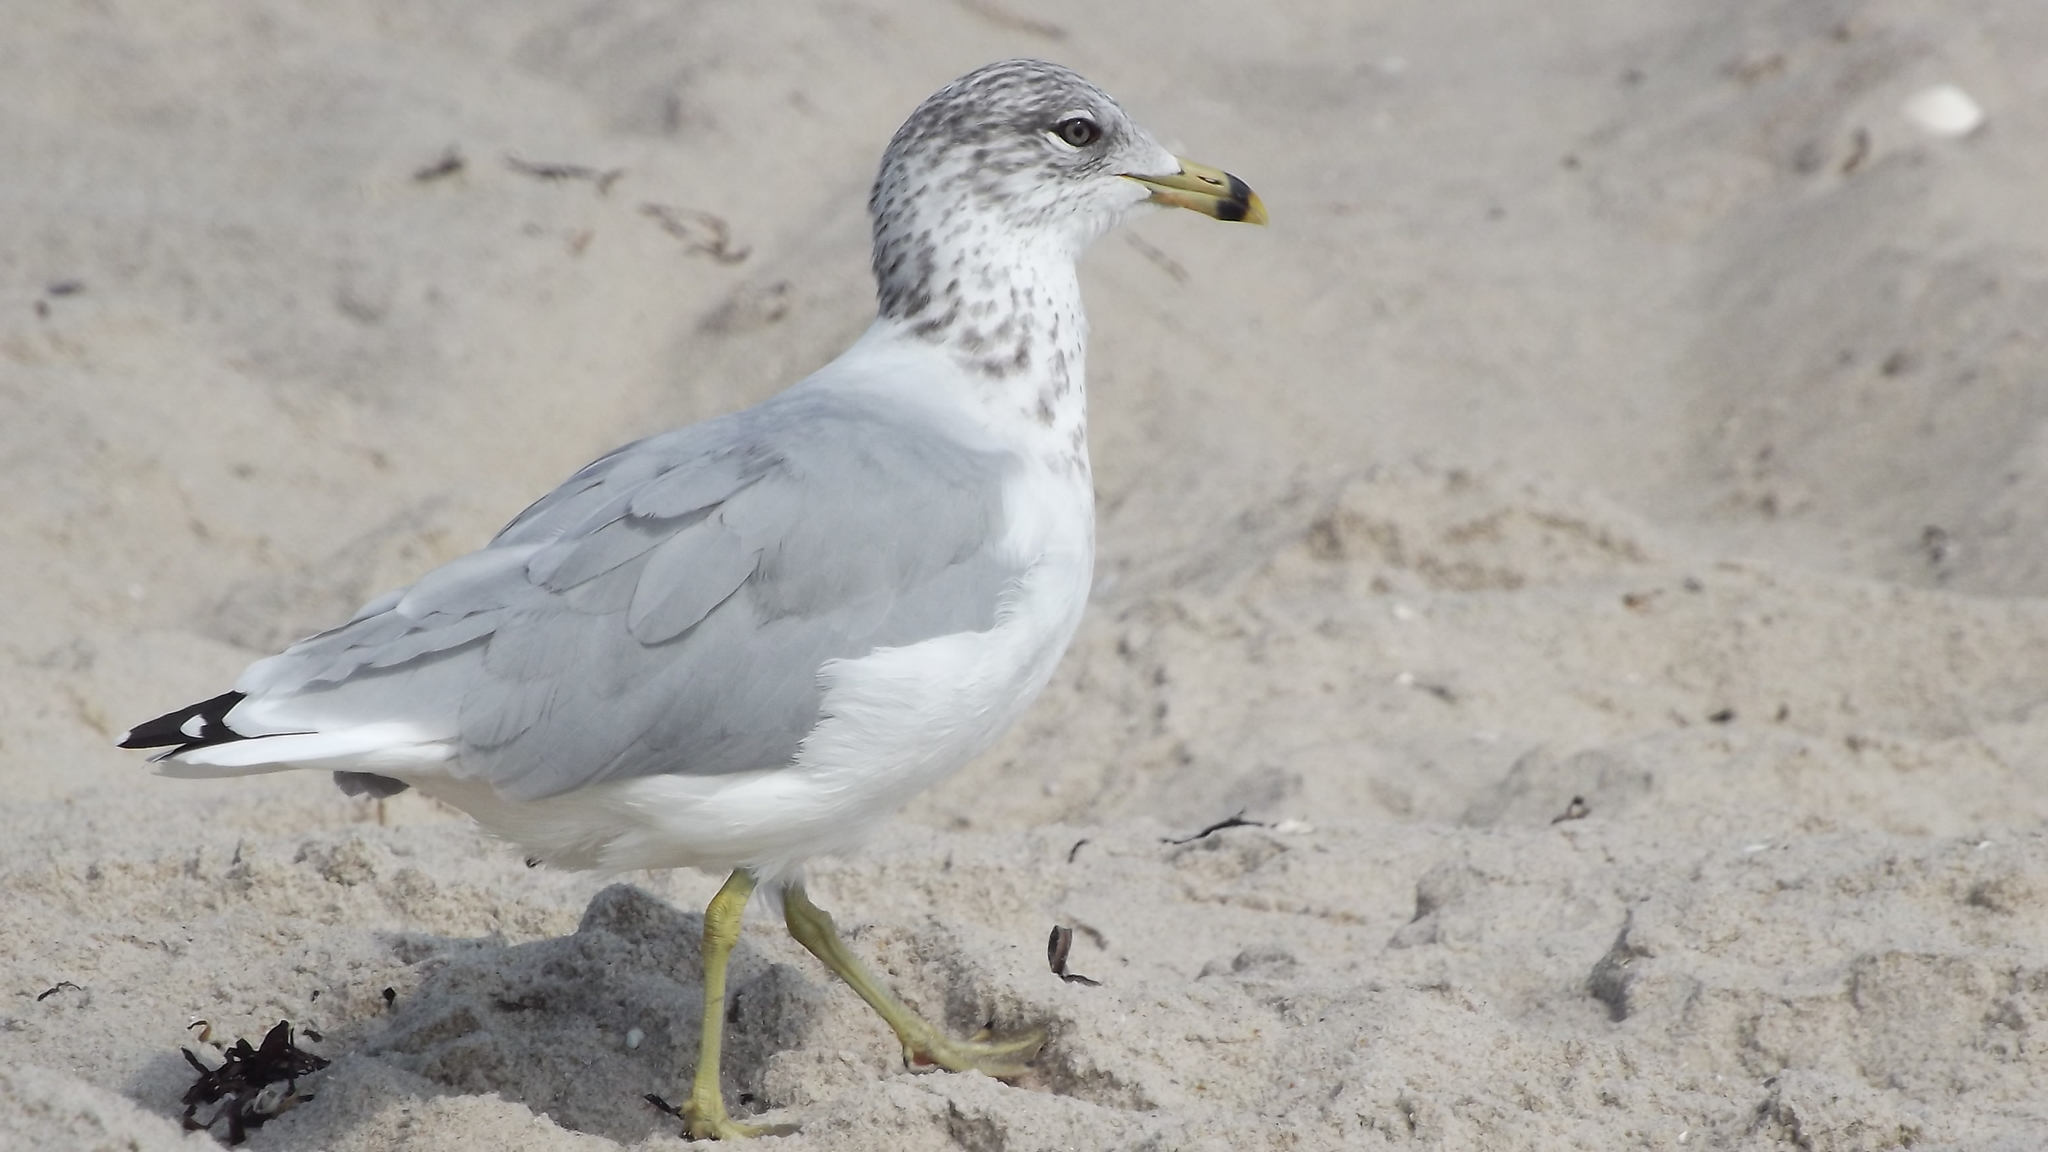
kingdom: Animalia
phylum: Chordata
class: Aves
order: Charadriiformes
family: Laridae
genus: Larus
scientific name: Larus delawarensis
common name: Ring-billed gull
